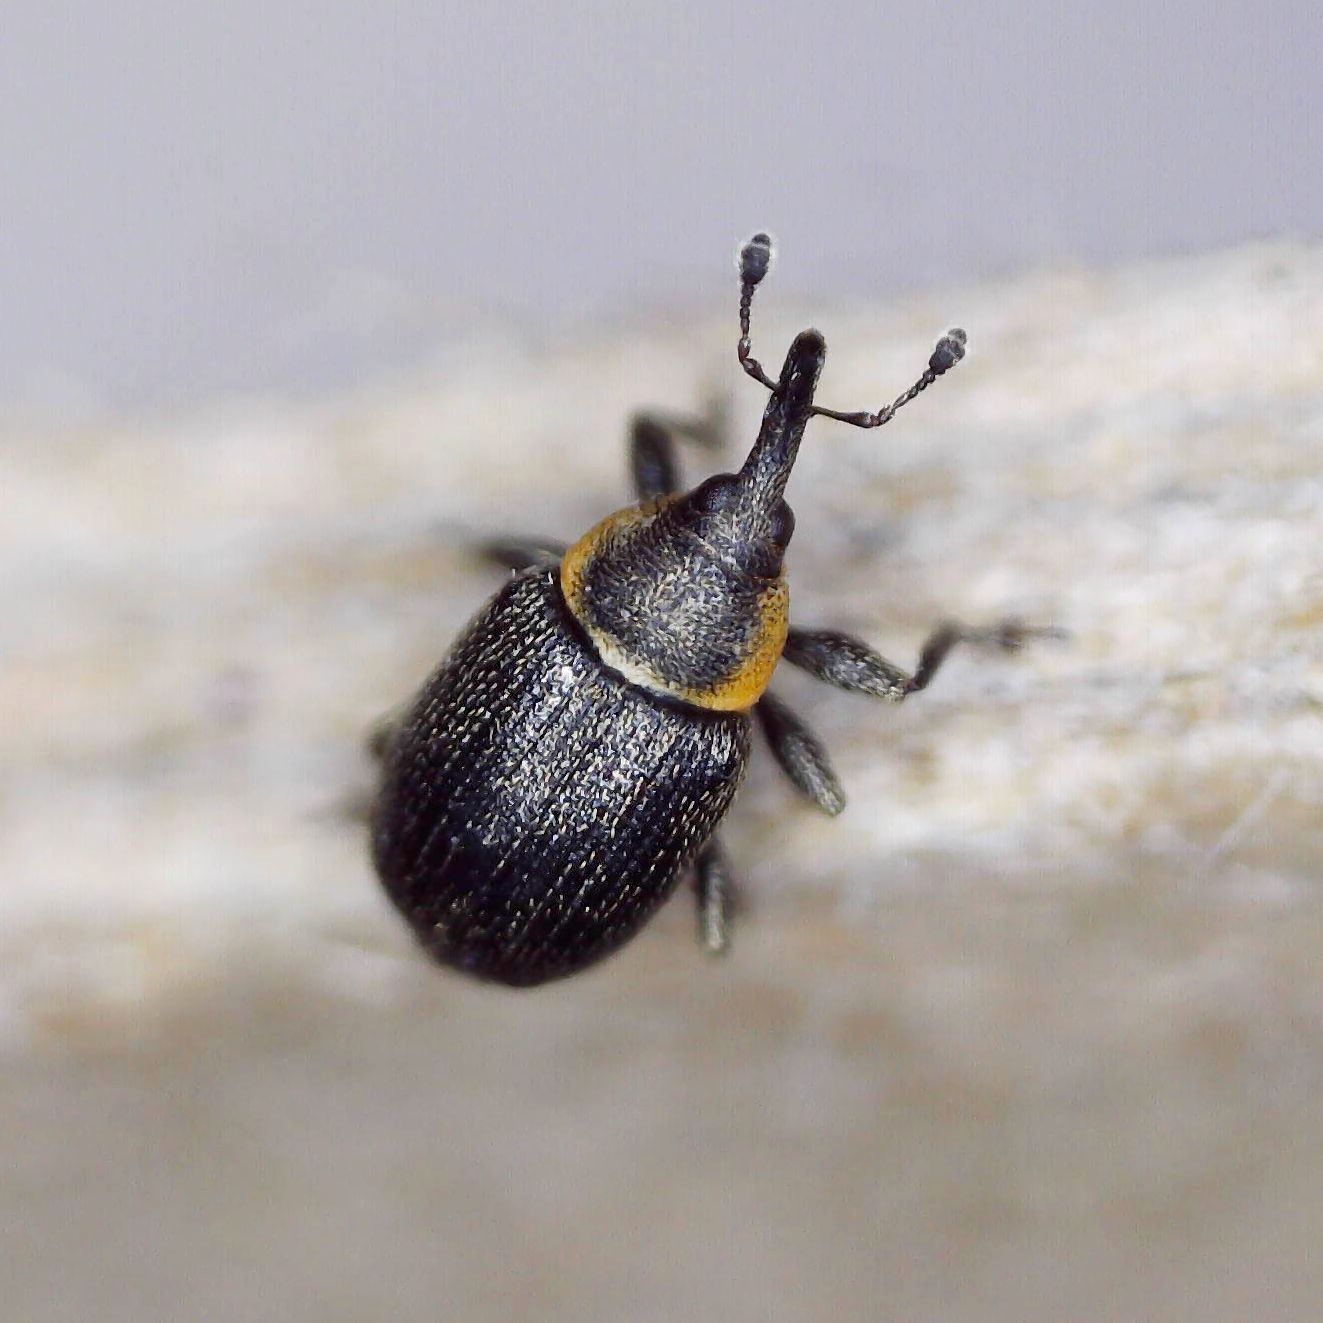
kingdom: Animalia
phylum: Arthropoda
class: Insecta
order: Coleoptera
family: Curculionidae
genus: Gymnetron
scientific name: Gymnetron veronicae
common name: Brooklime gall weevil
